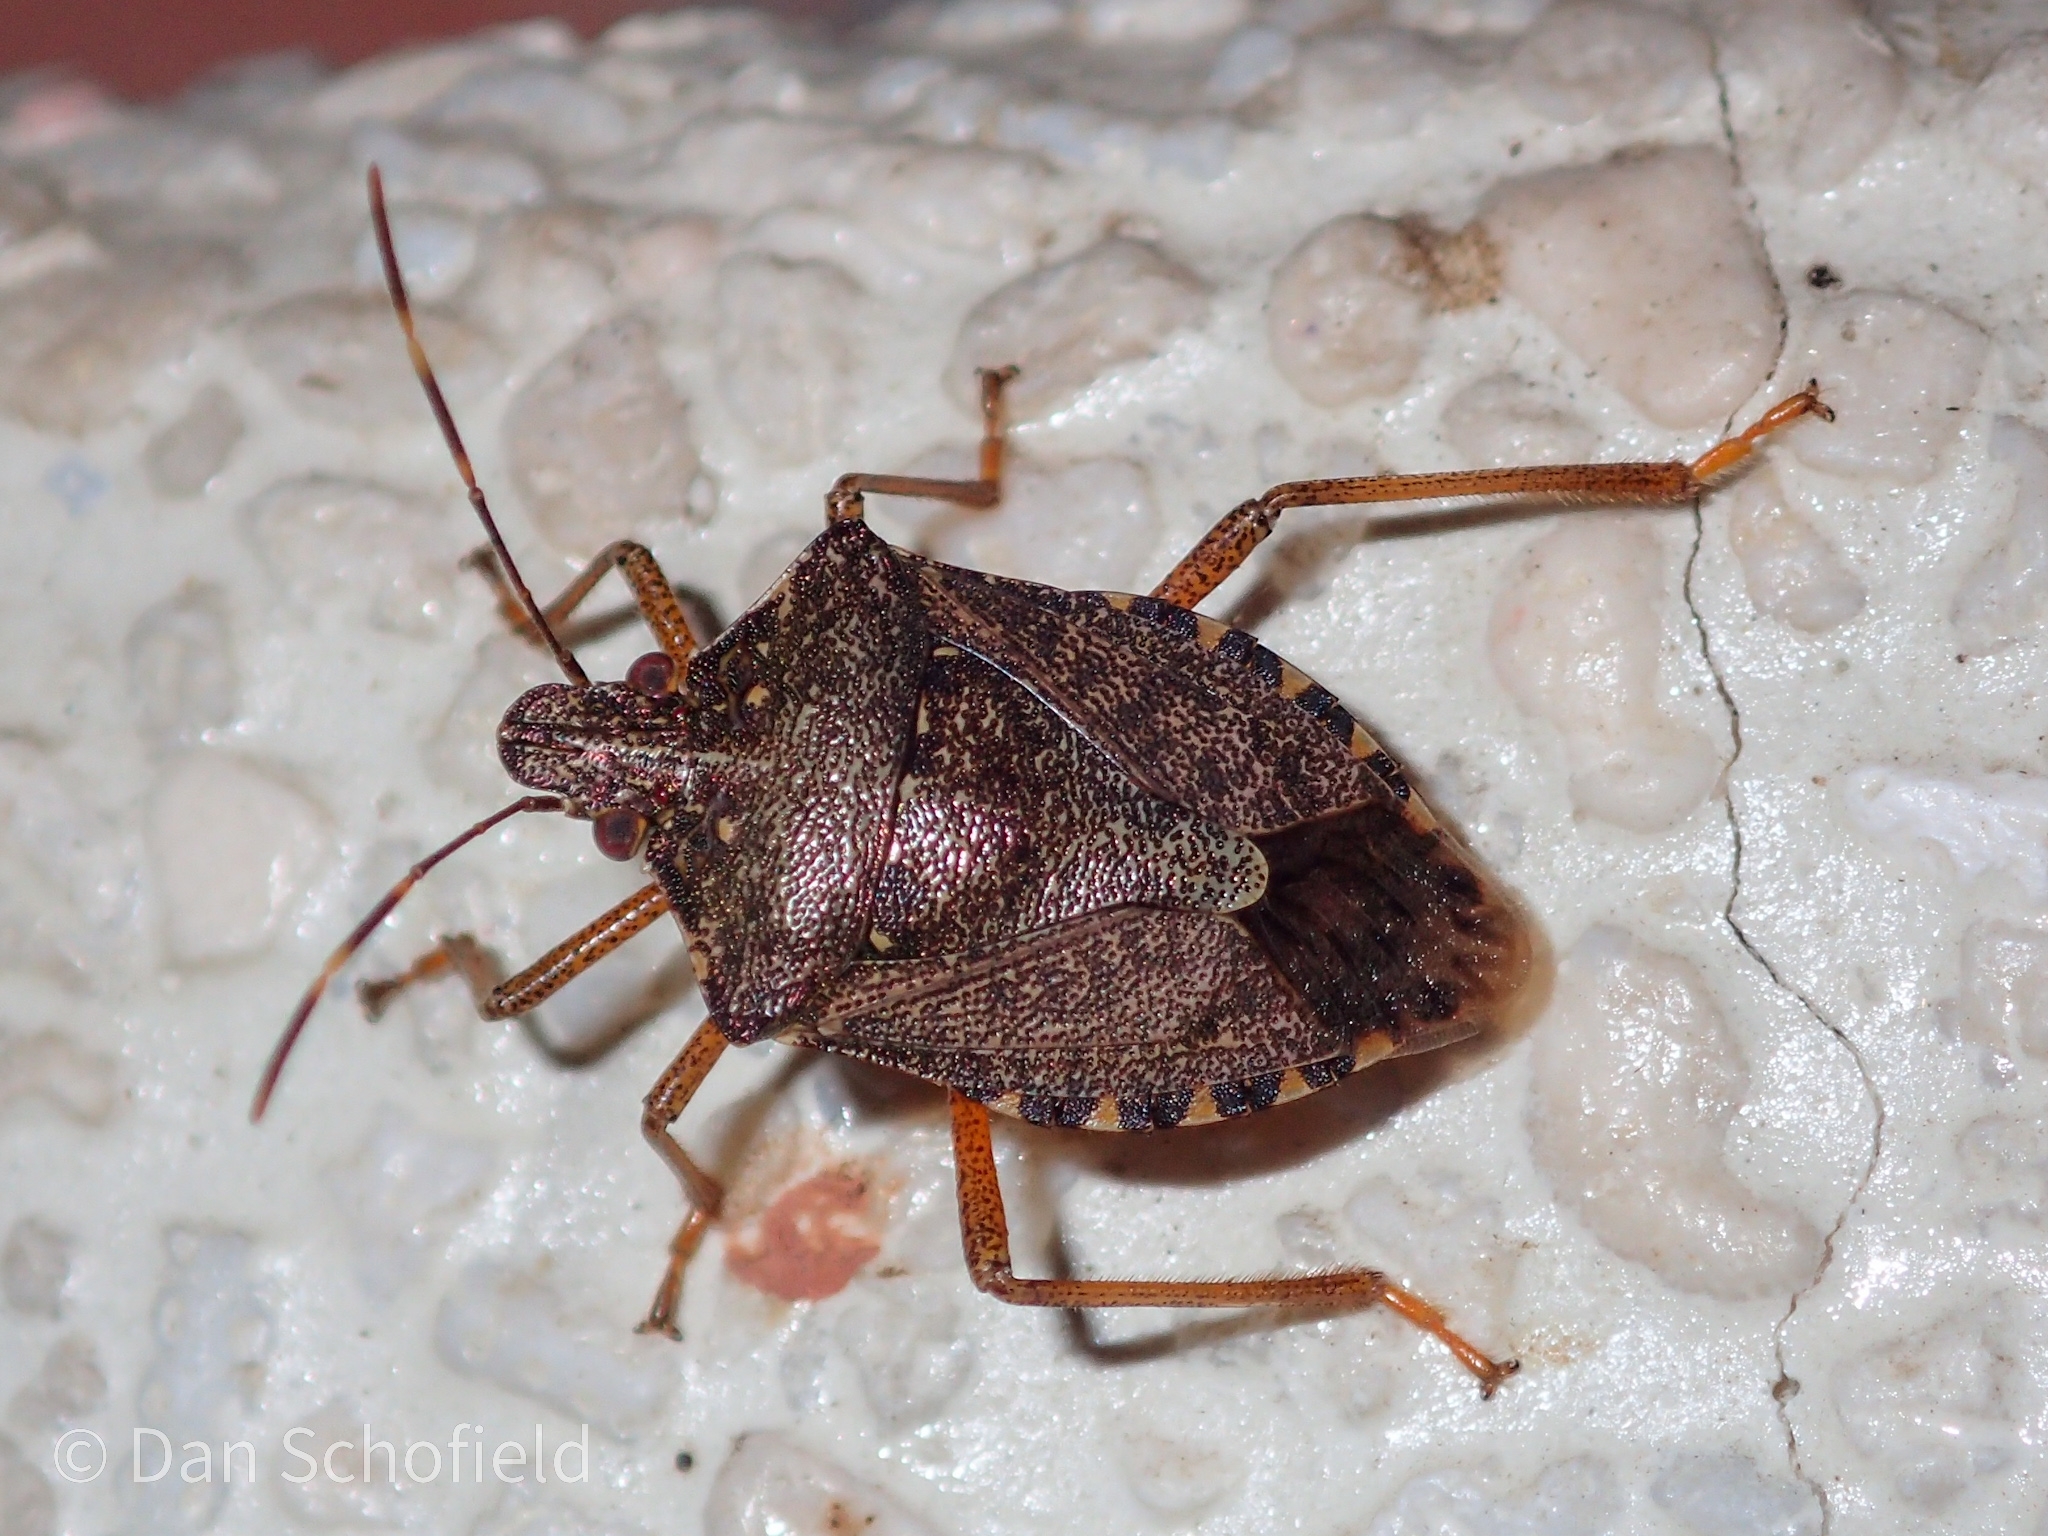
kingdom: Animalia
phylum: Arthropoda
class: Insecta
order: Hemiptera
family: Pentatomidae
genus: Halyomorpha
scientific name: Halyomorpha halys
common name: Brown marmorated stink bug
